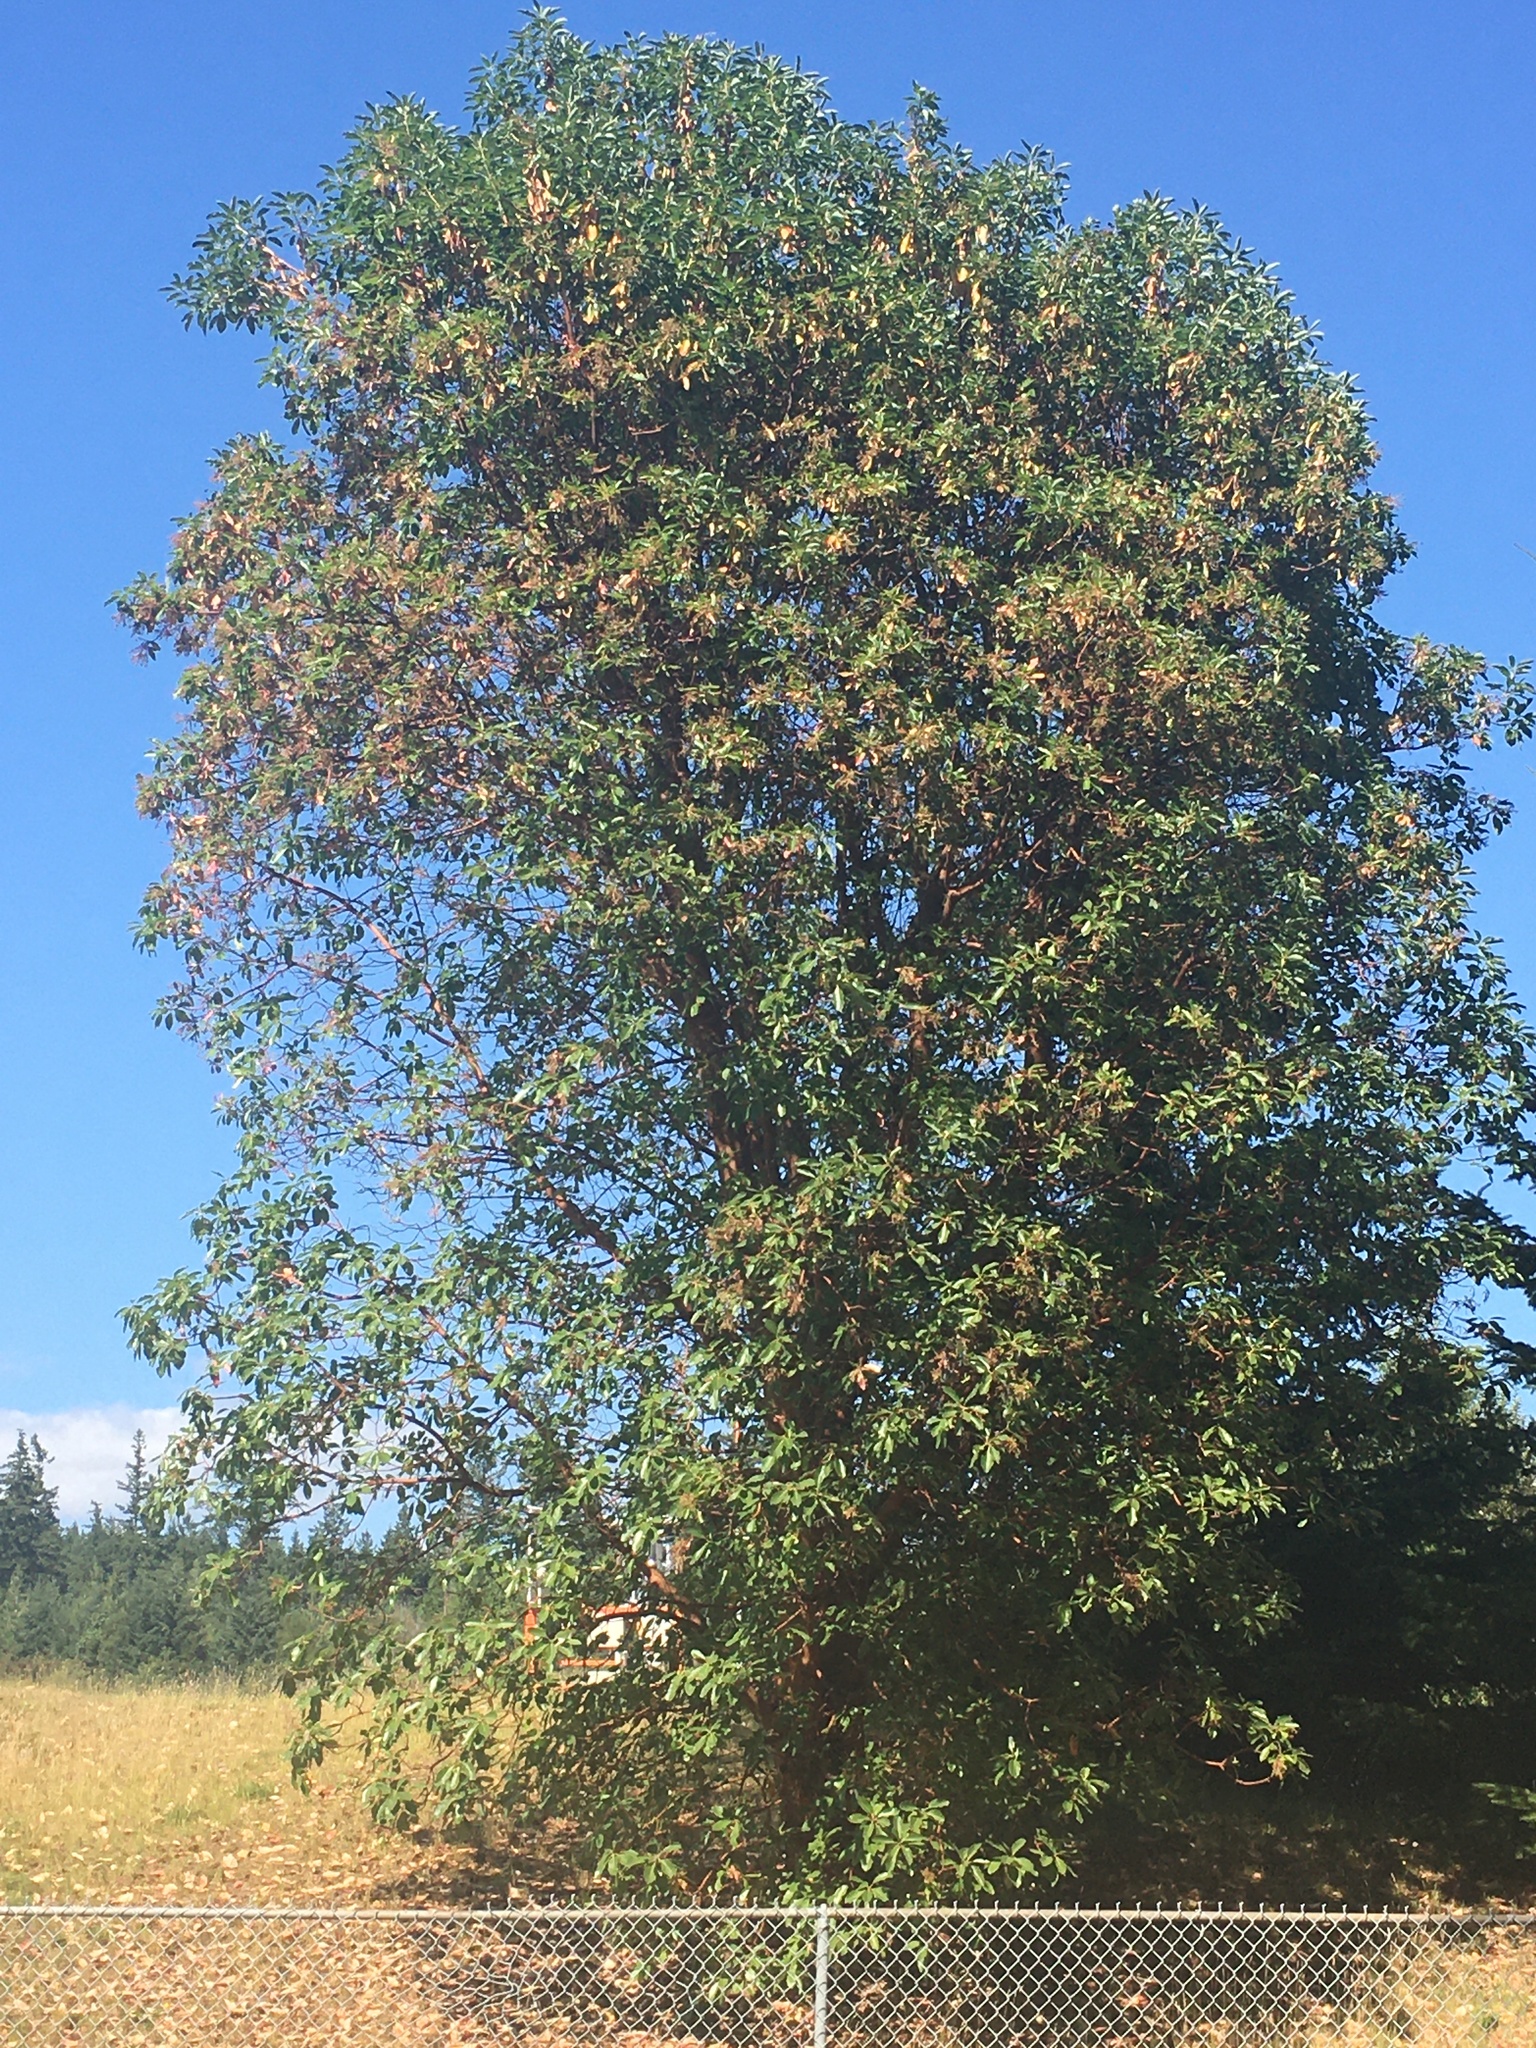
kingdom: Plantae
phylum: Tracheophyta
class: Magnoliopsida
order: Ericales
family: Ericaceae
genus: Arbutus
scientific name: Arbutus menziesii
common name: Pacific madrone
